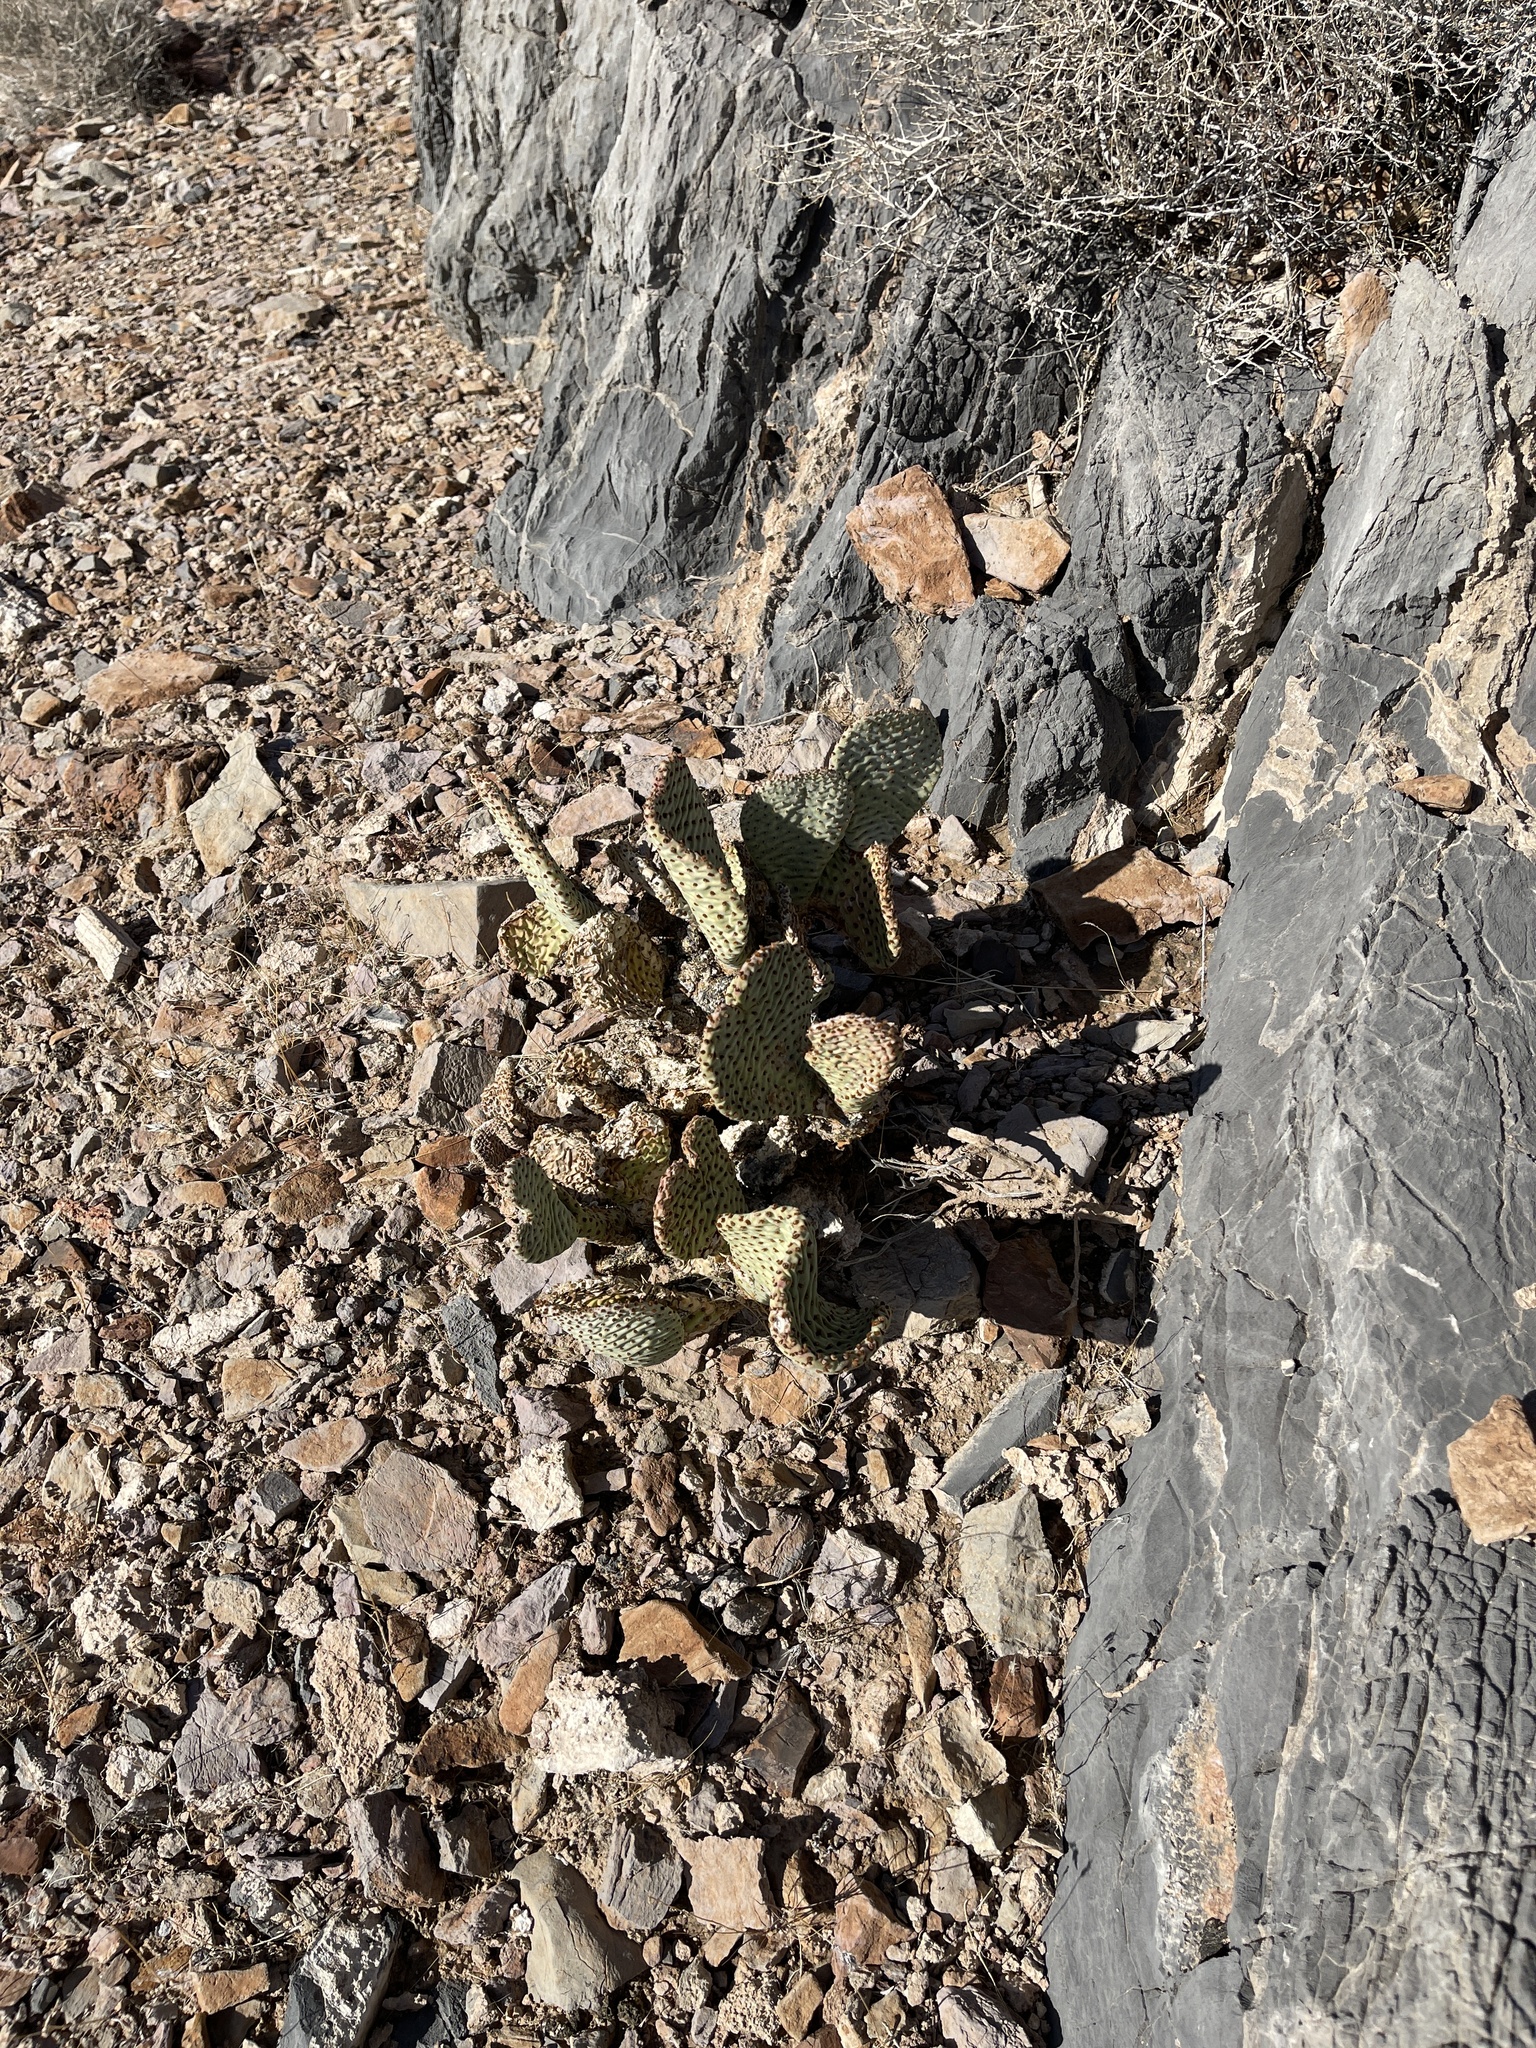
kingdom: Plantae
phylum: Tracheophyta
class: Magnoliopsida
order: Caryophyllales
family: Cactaceae
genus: Opuntia
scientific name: Opuntia basilaris
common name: Beavertail prickly-pear
